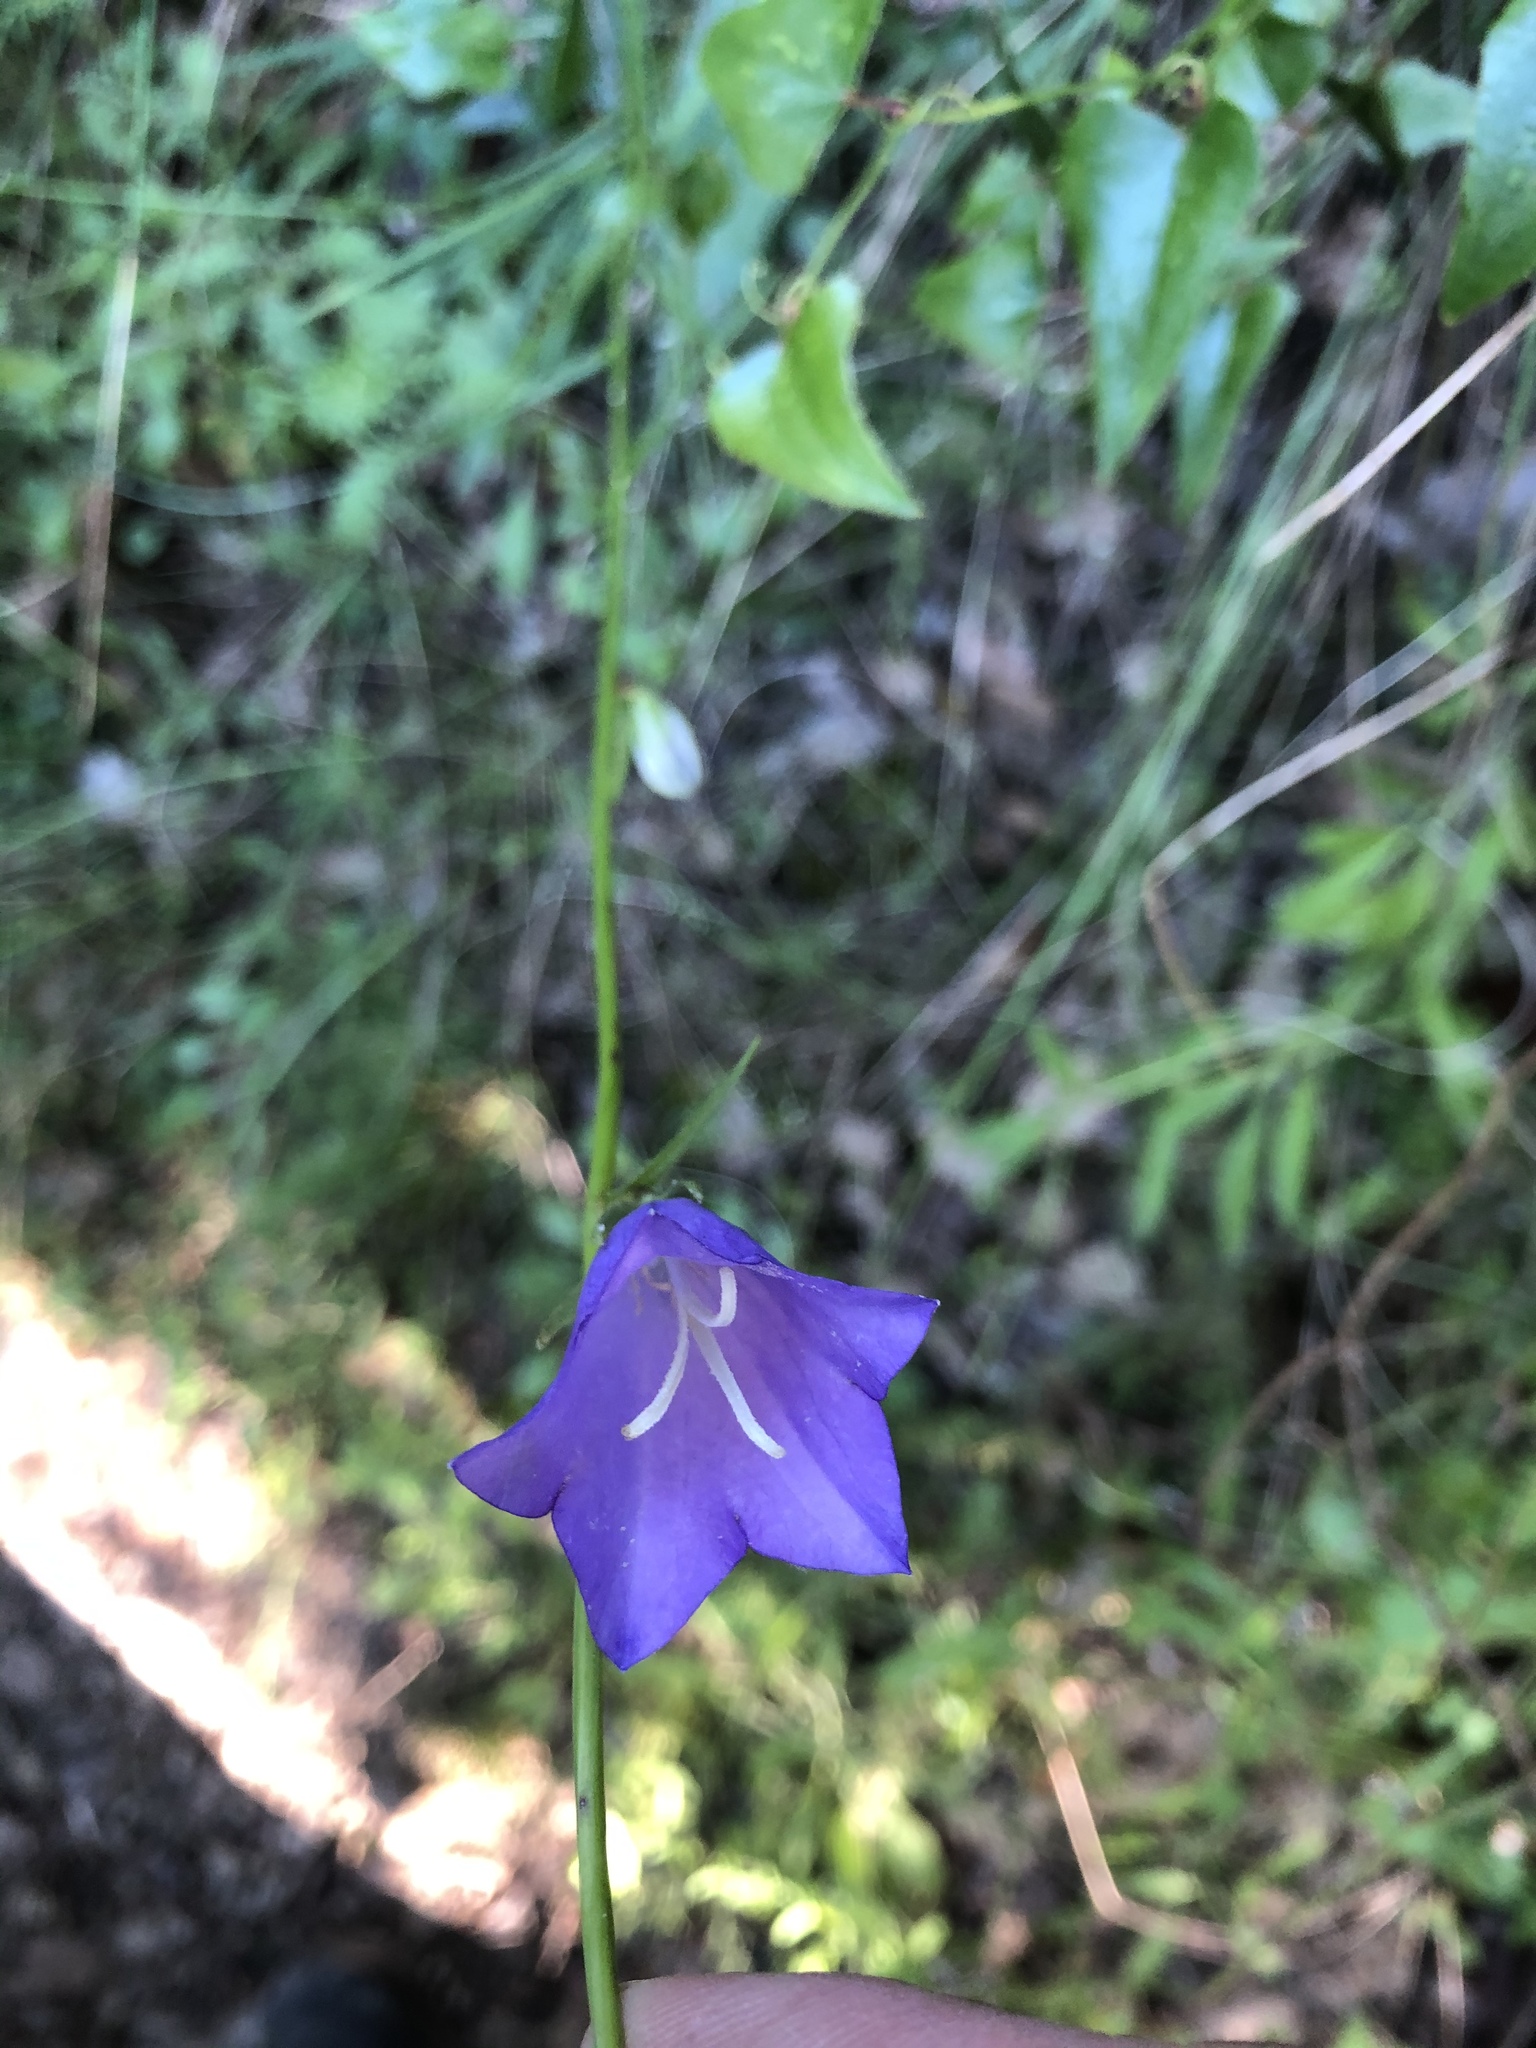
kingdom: Plantae
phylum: Tracheophyta
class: Magnoliopsida
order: Asterales
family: Campanulaceae
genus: Campanula
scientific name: Campanula persicifolia
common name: Peach-leaved bellflower
